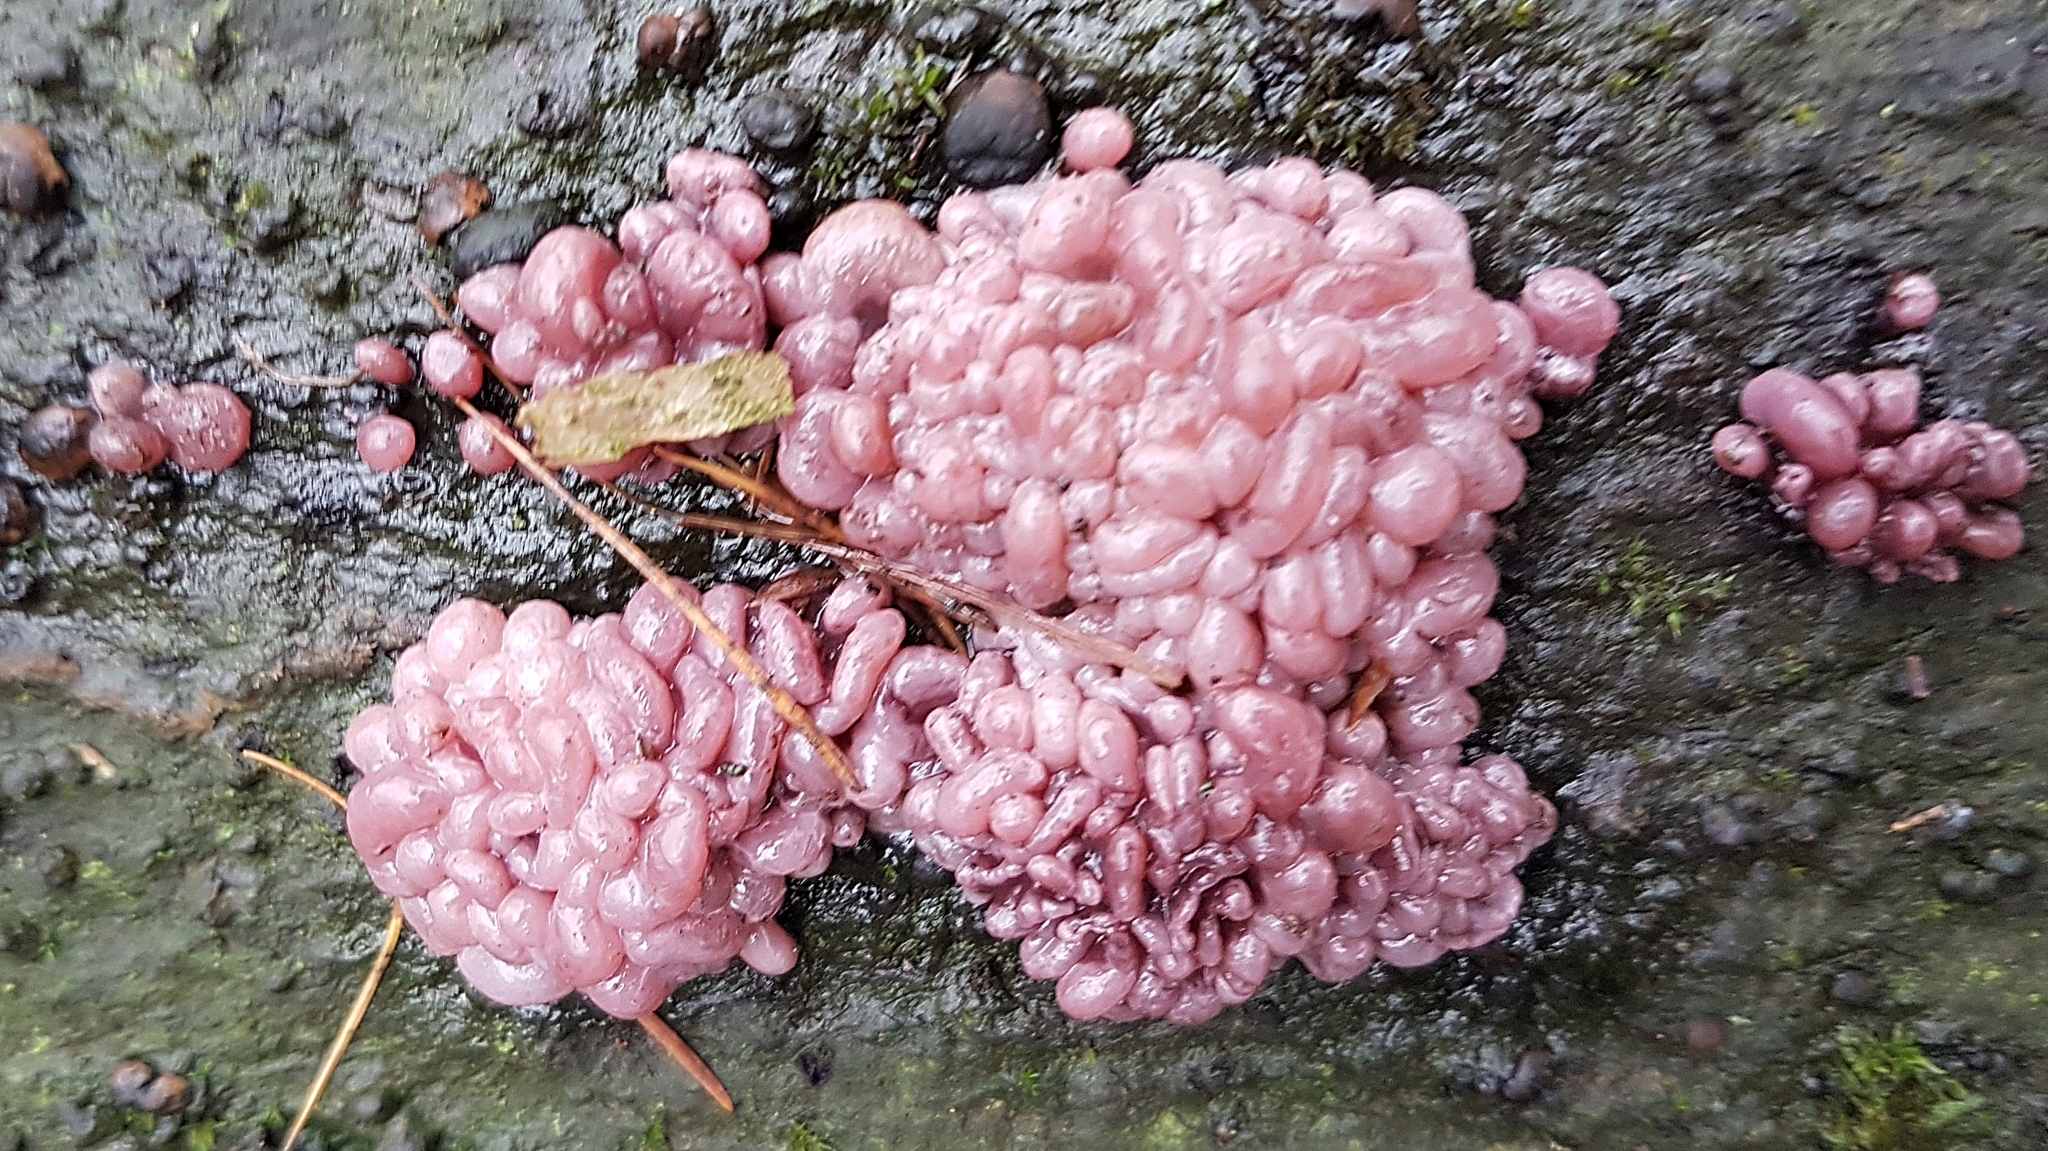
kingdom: Fungi
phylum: Ascomycota
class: Leotiomycetes
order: Helotiales
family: Gelatinodiscaceae
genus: Ascocoryne
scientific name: Ascocoryne sarcoides
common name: Purple jellydisc
